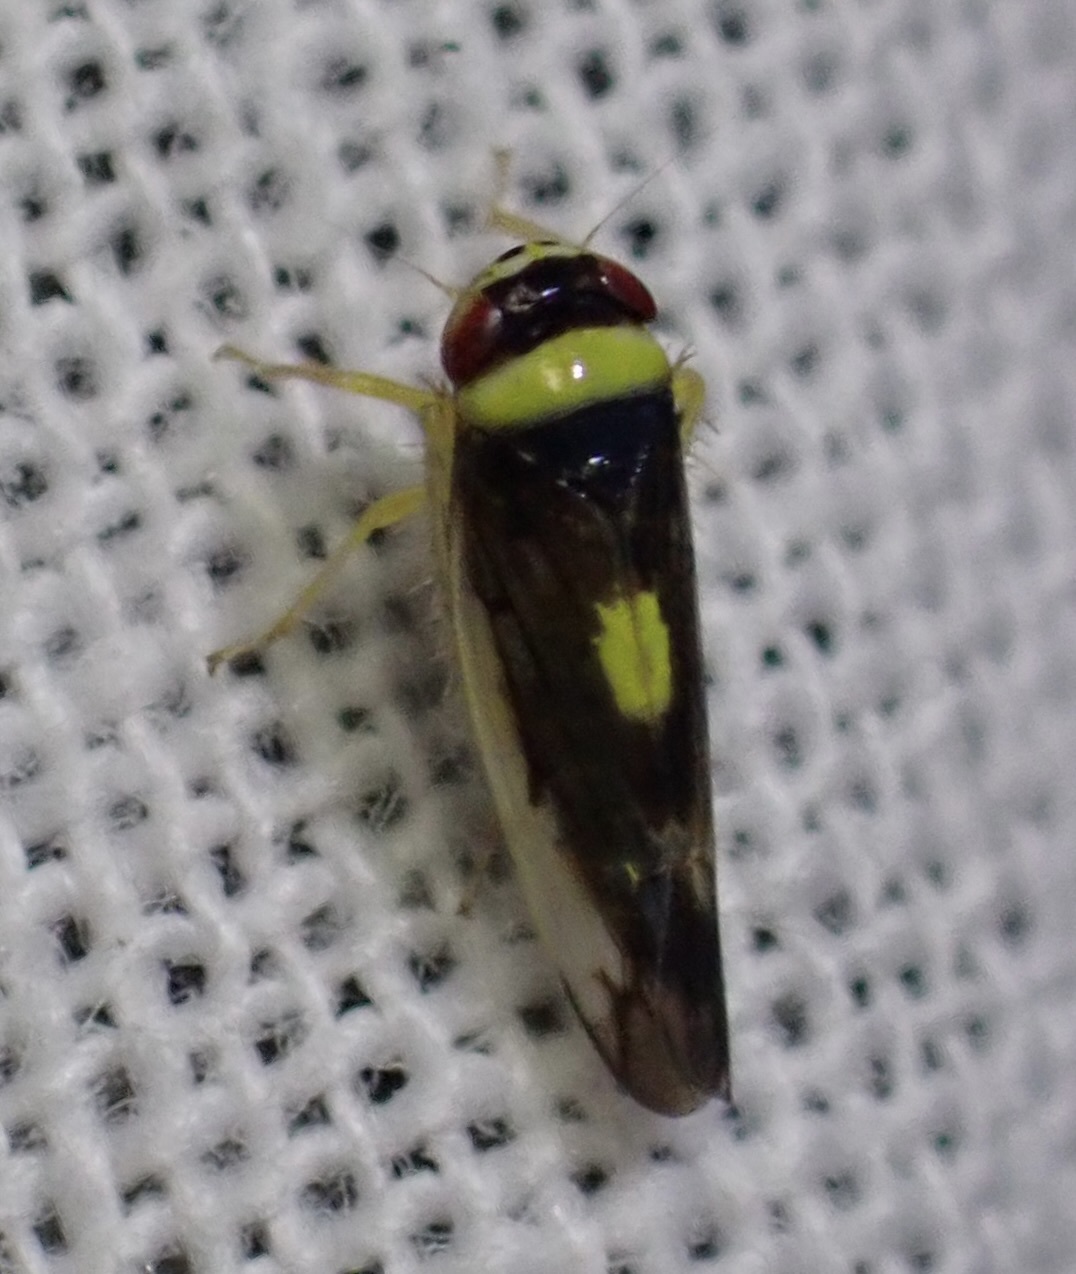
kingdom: Animalia
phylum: Arthropoda
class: Insecta
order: Hemiptera
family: Cicadellidae
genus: Colladonus
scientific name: Colladonus montanus
